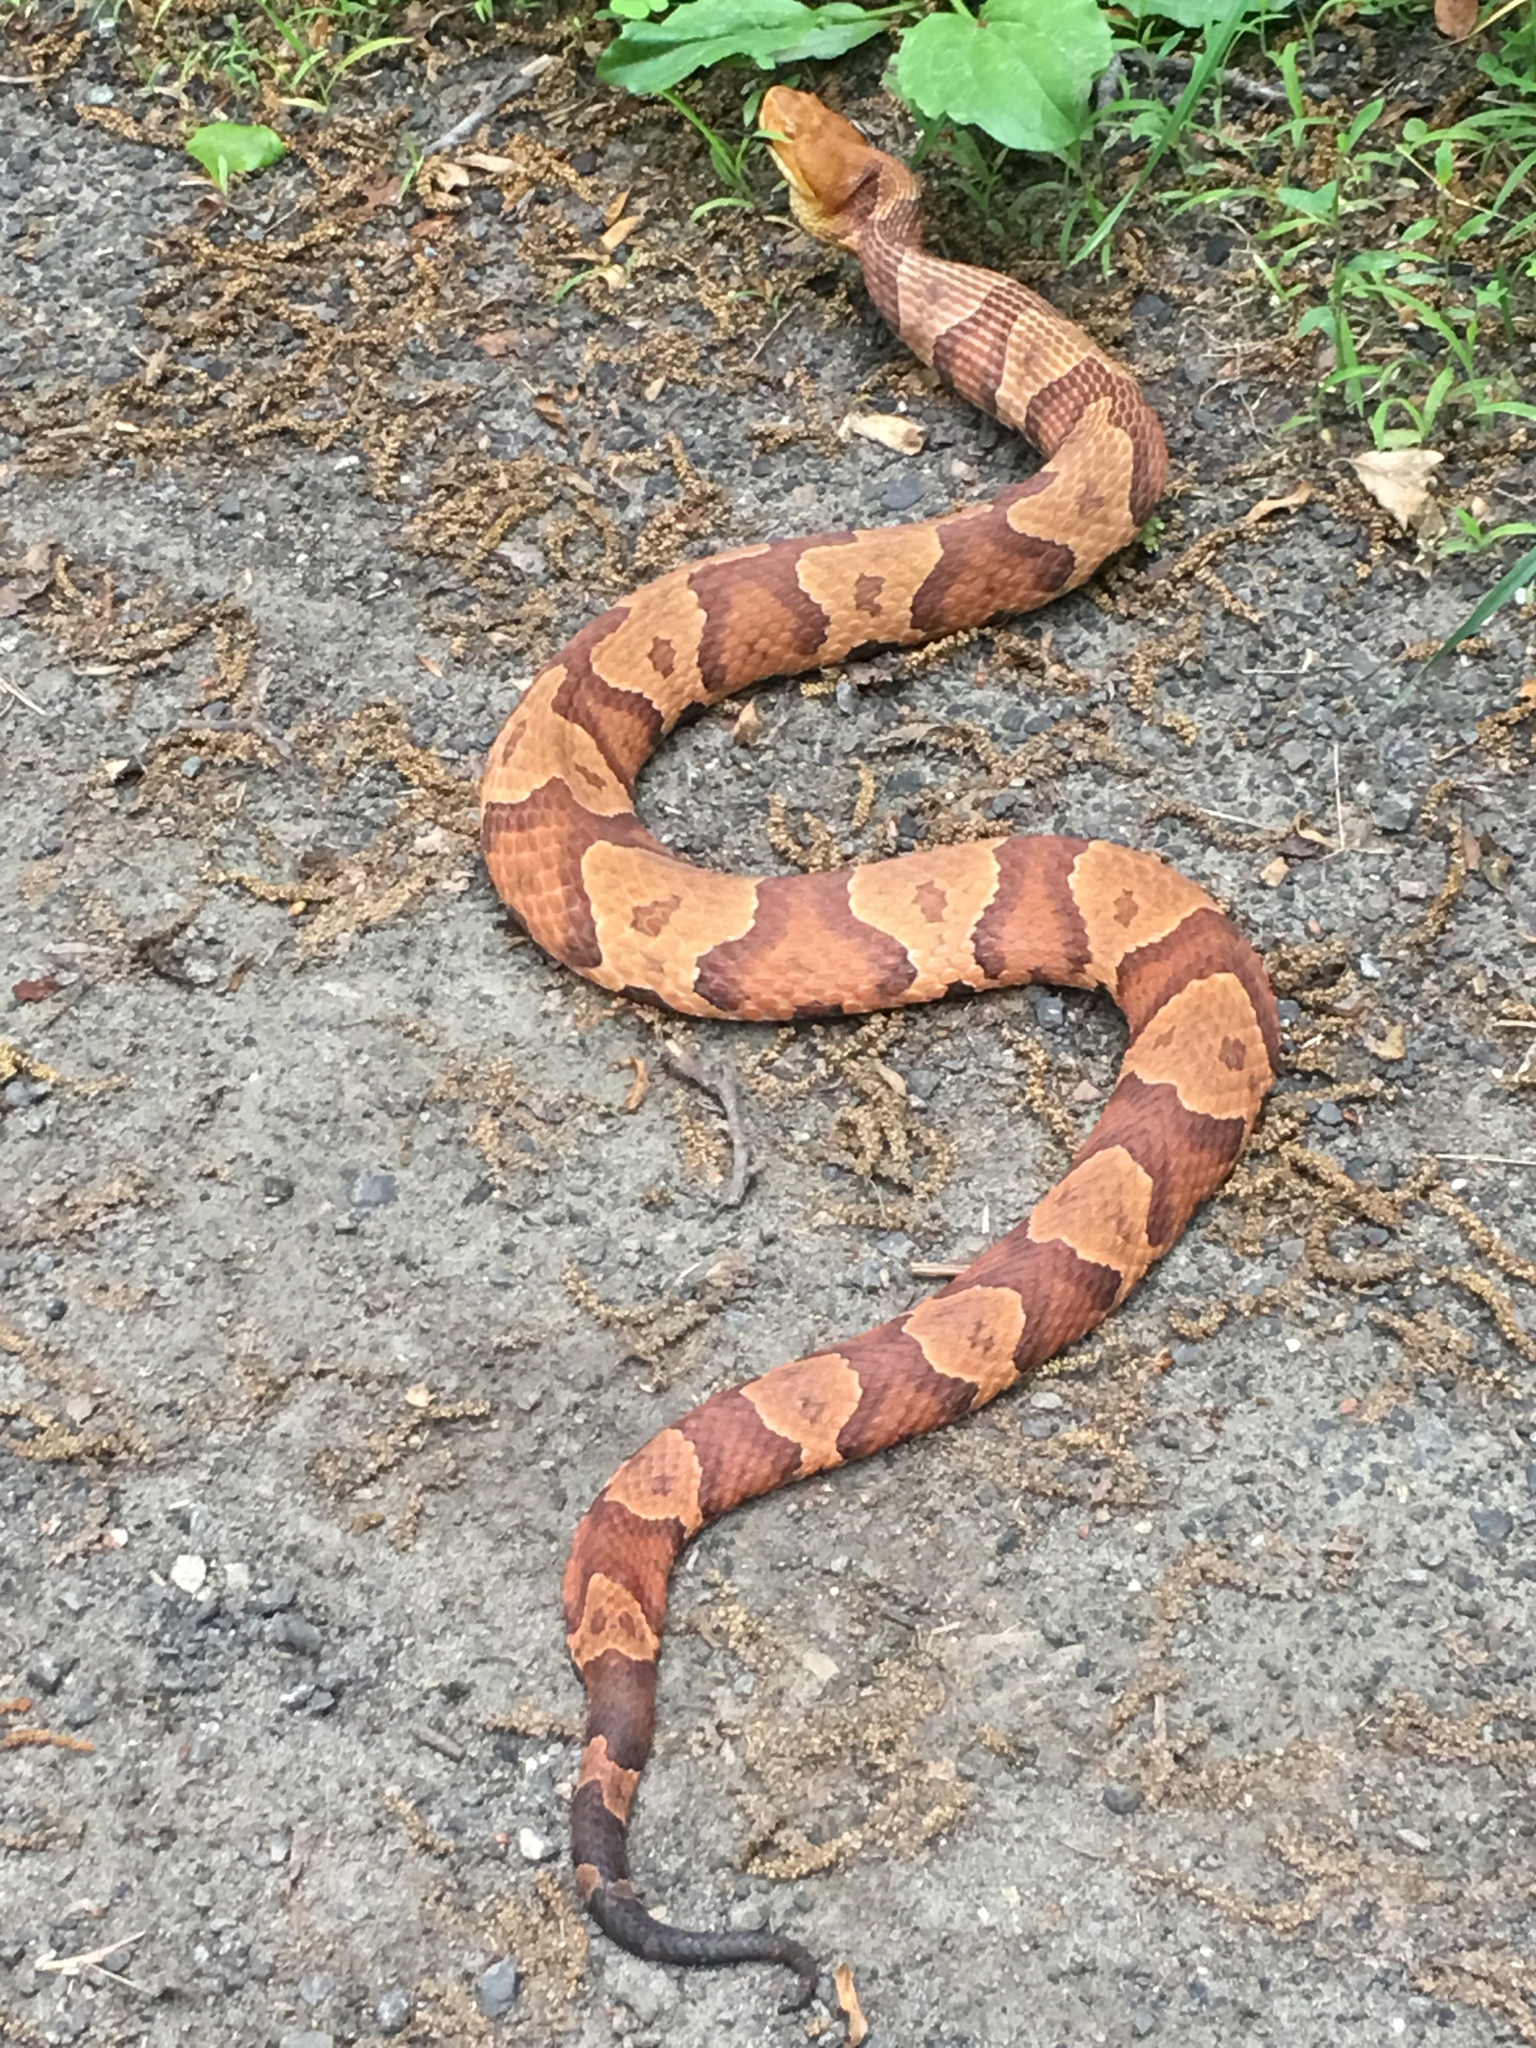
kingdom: Animalia
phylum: Chordata
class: Squamata
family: Viperidae
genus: Agkistrodon
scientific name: Agkistrodon contortrix
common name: Northern copperhead
